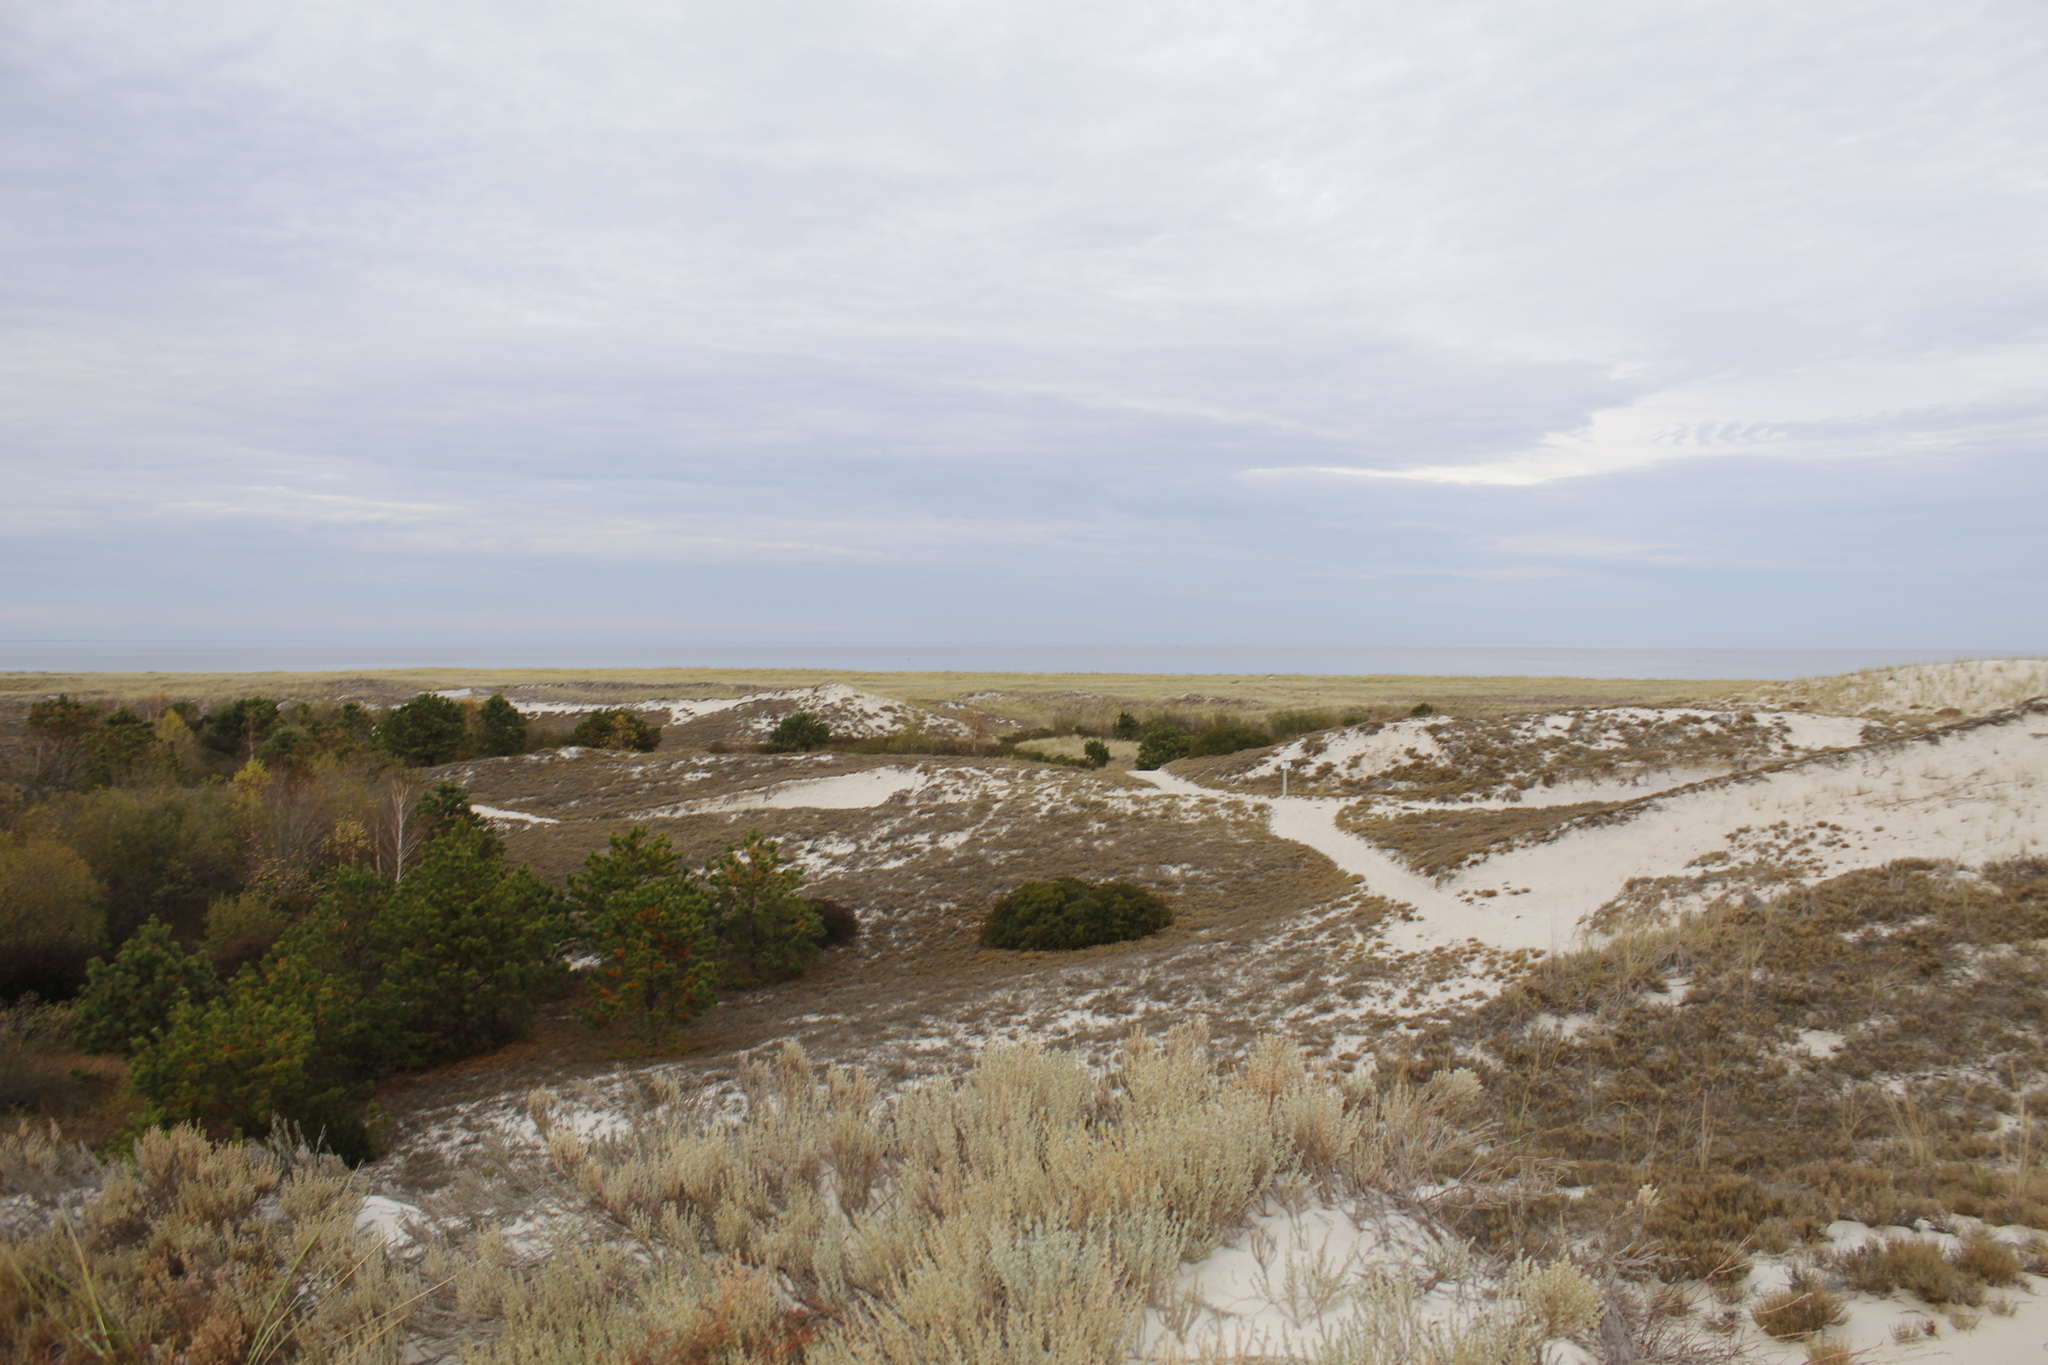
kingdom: Plantae
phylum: Tracheophyta
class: Magnoliopsida
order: Malvales
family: Cistaceae
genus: Hudsonia
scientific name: Hudsonia tomentosa
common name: Beach-heath
